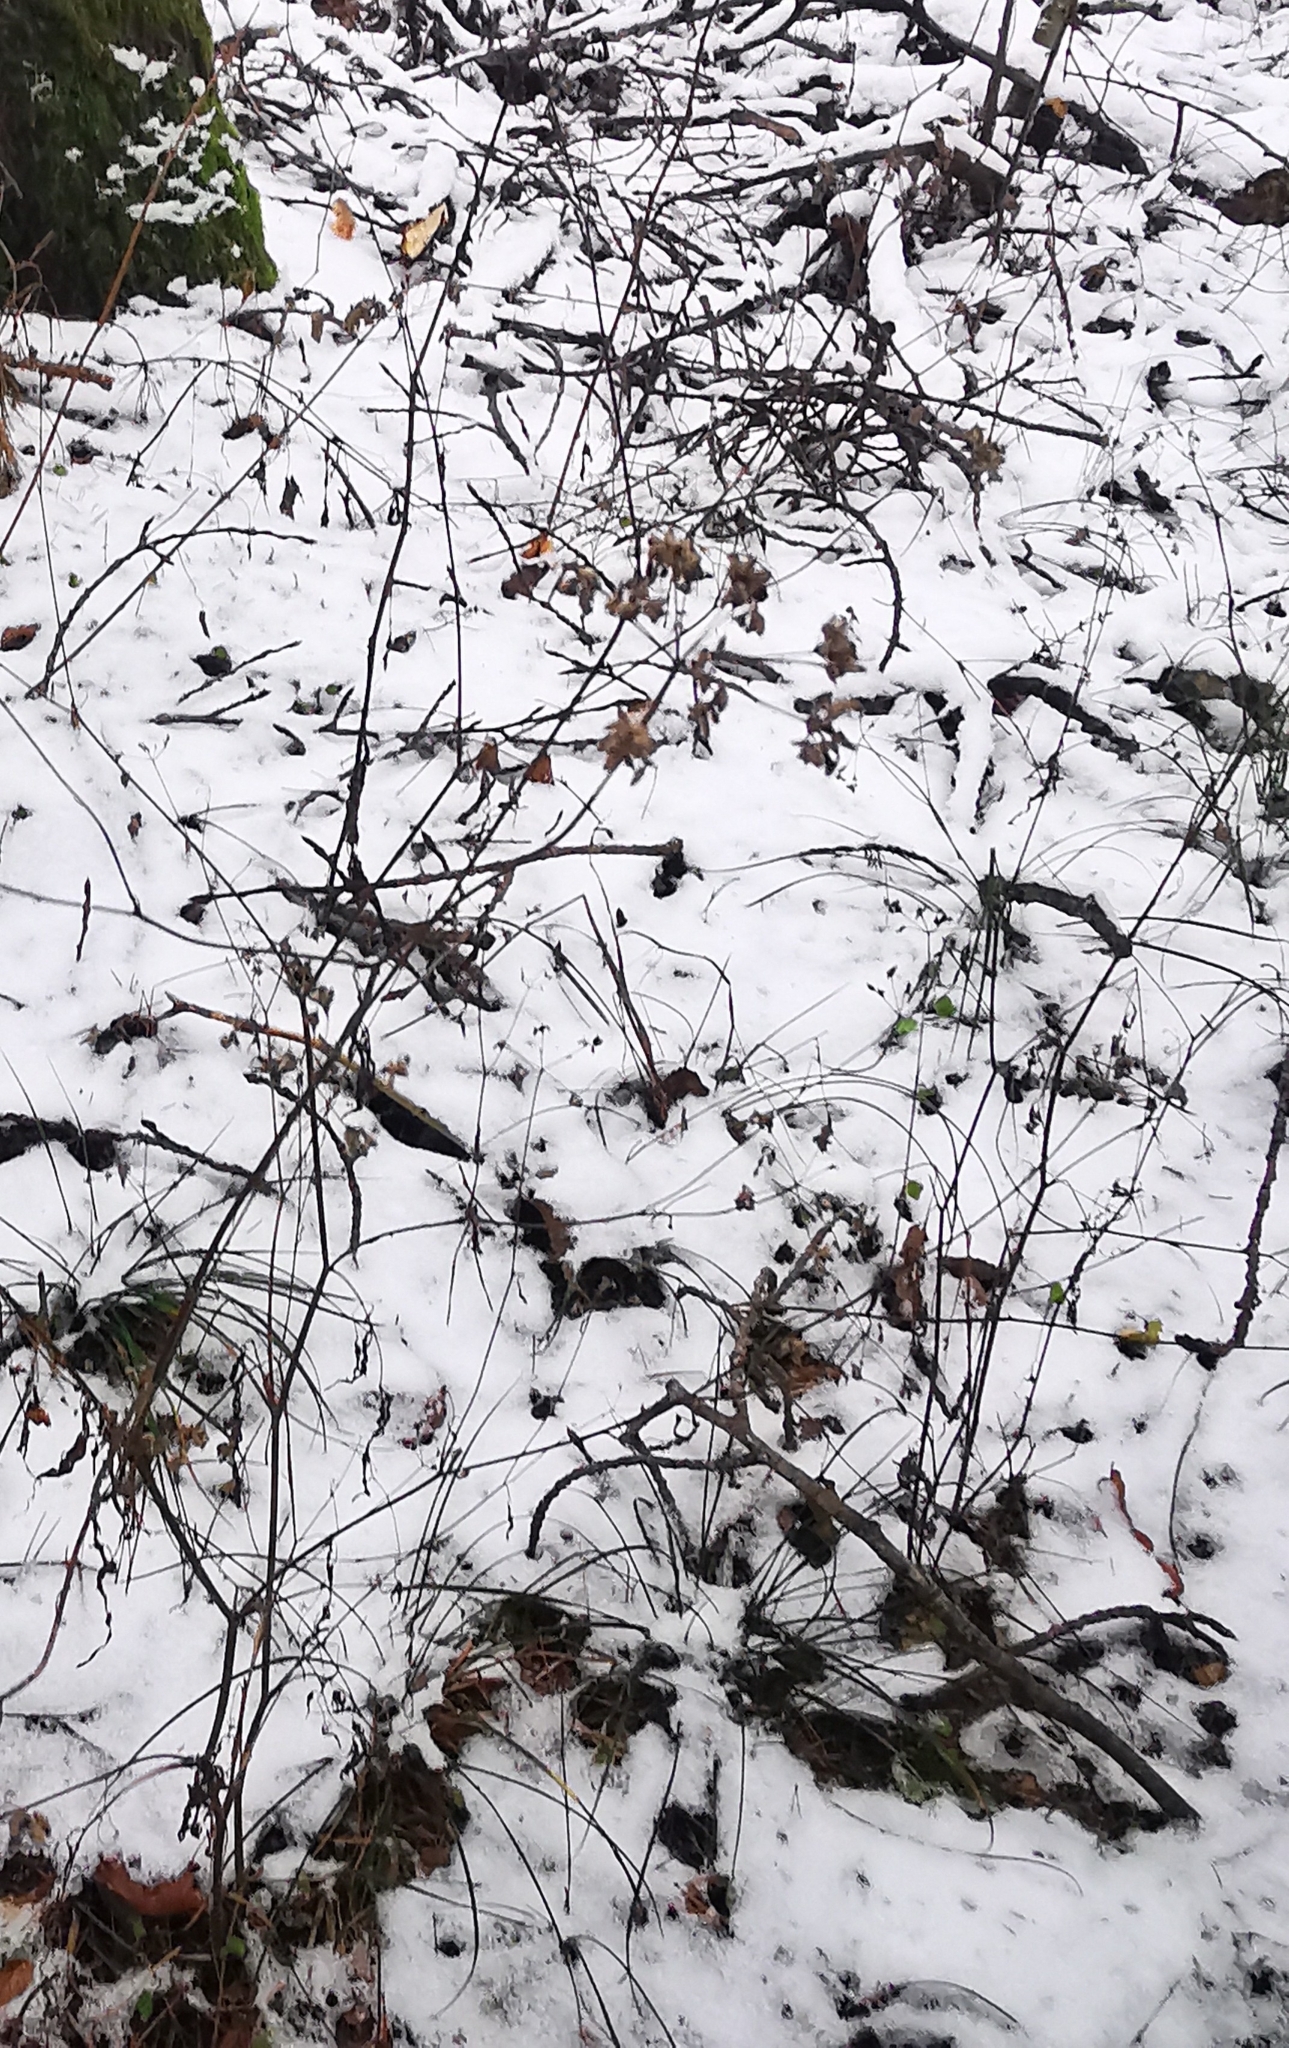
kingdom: Plantae
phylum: Tracheophyta
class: Magnoliopsida
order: Apiales
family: Apiaceae
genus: Torilis
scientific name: Torilis japonica
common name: Upright hedge-parsley
